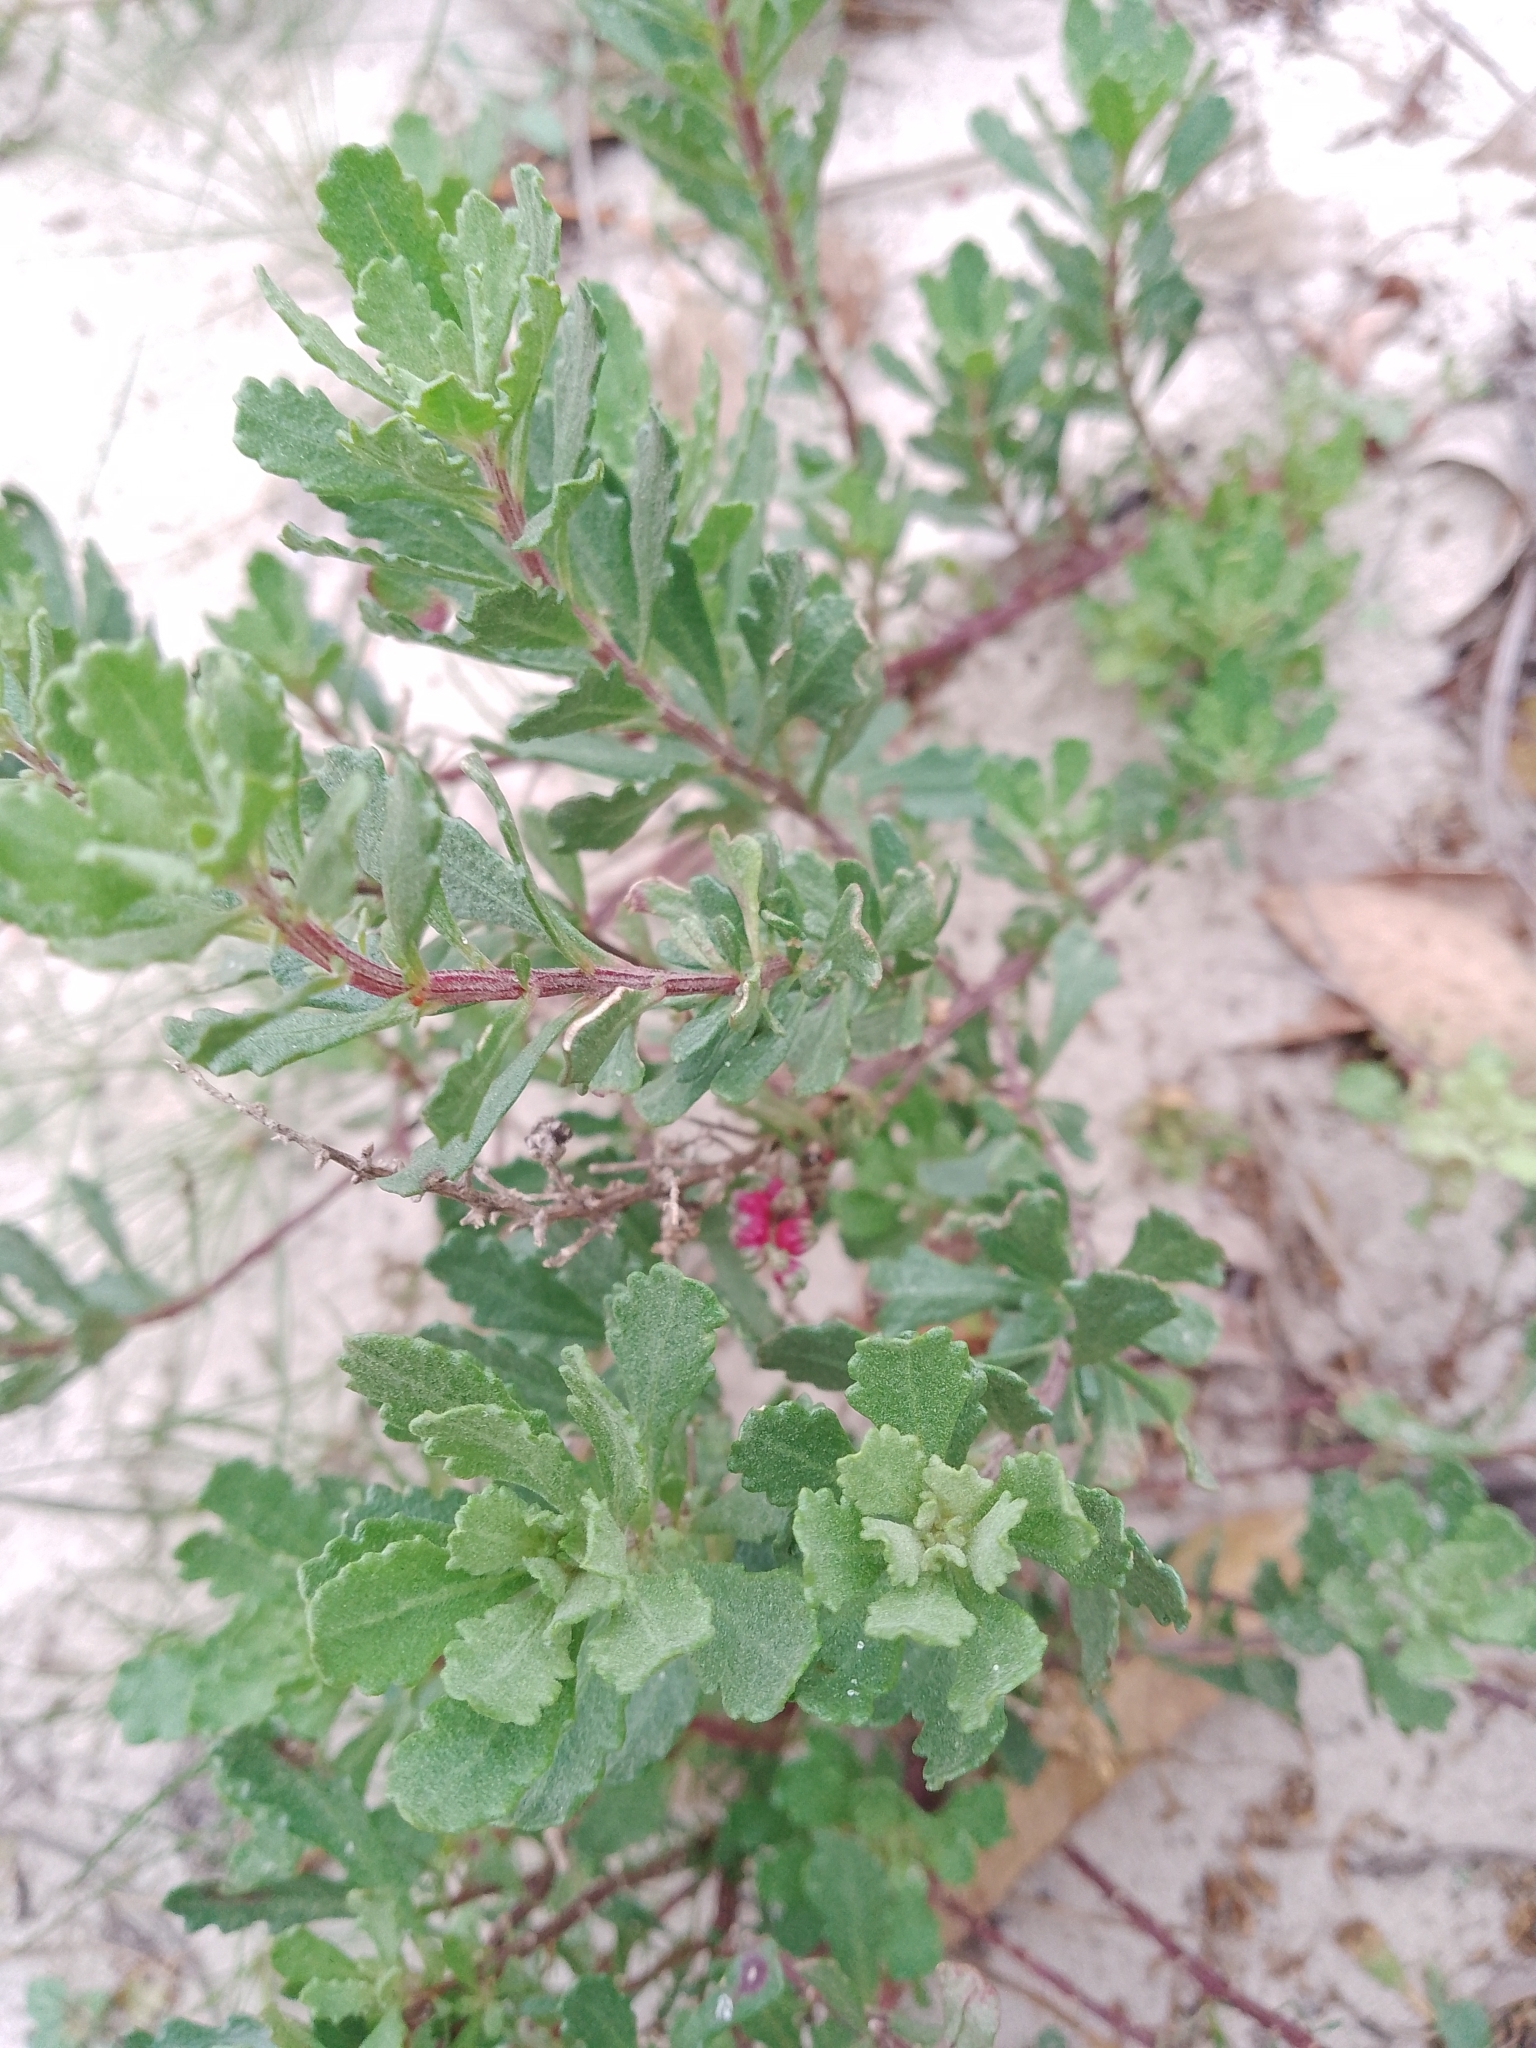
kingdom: Plantae
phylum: Tracheophyta
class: Magnoliopsida
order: Caryophyllales
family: Amaranthaceae
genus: Dysphania
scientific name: Dysphania retusa
